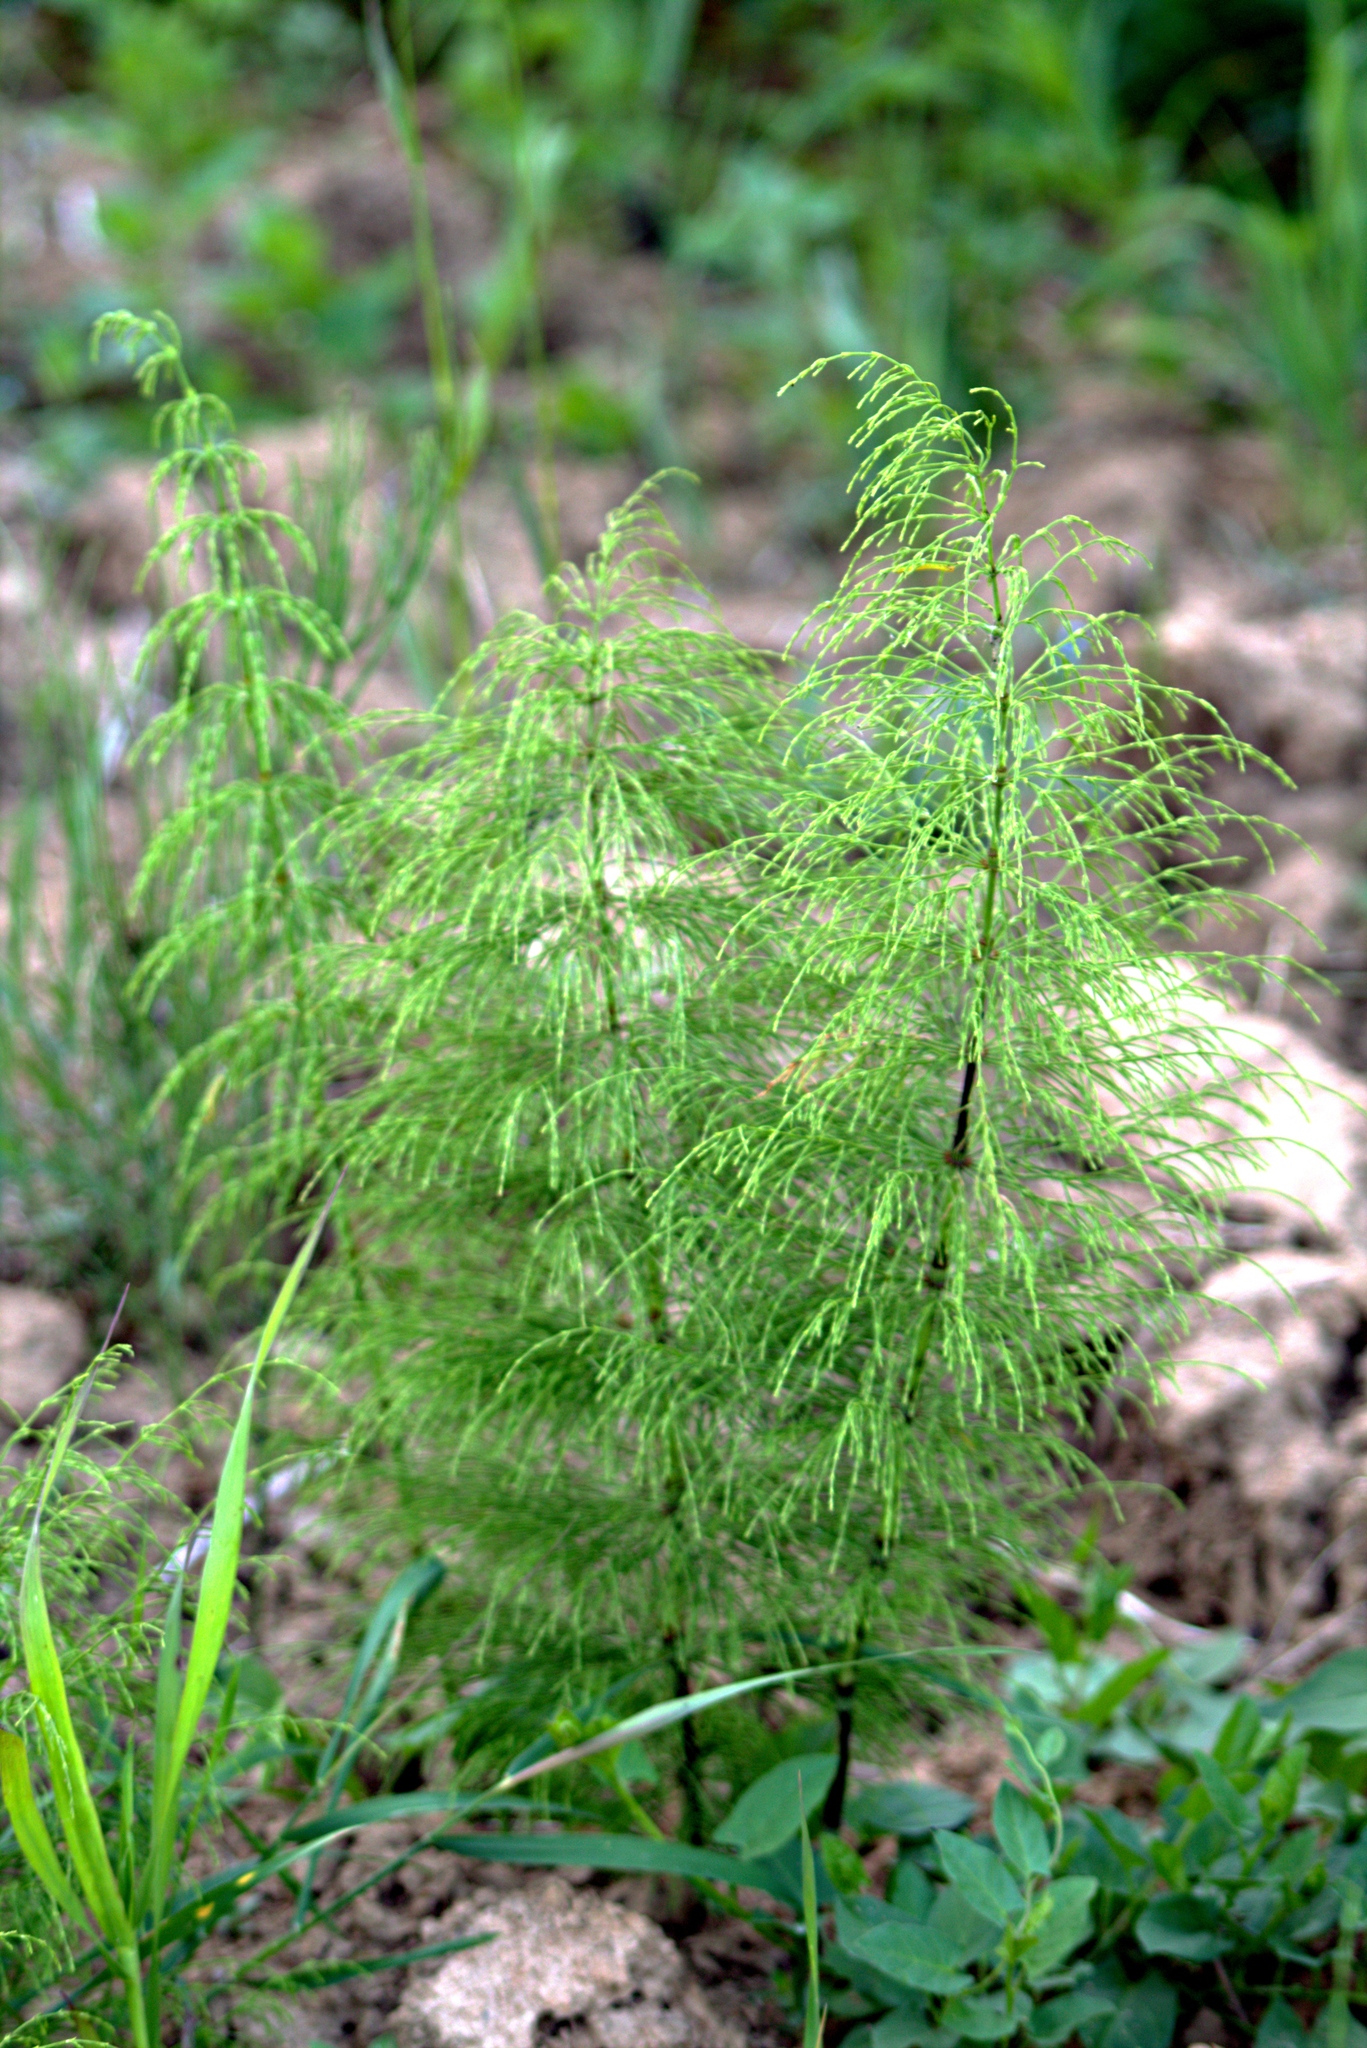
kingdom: Plantae
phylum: Tracheophyta
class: Polypodiopsida
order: Equisetales
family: Equisetaceae
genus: Equisetum
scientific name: Equisetum sylvaticum
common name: Wood horsetail
